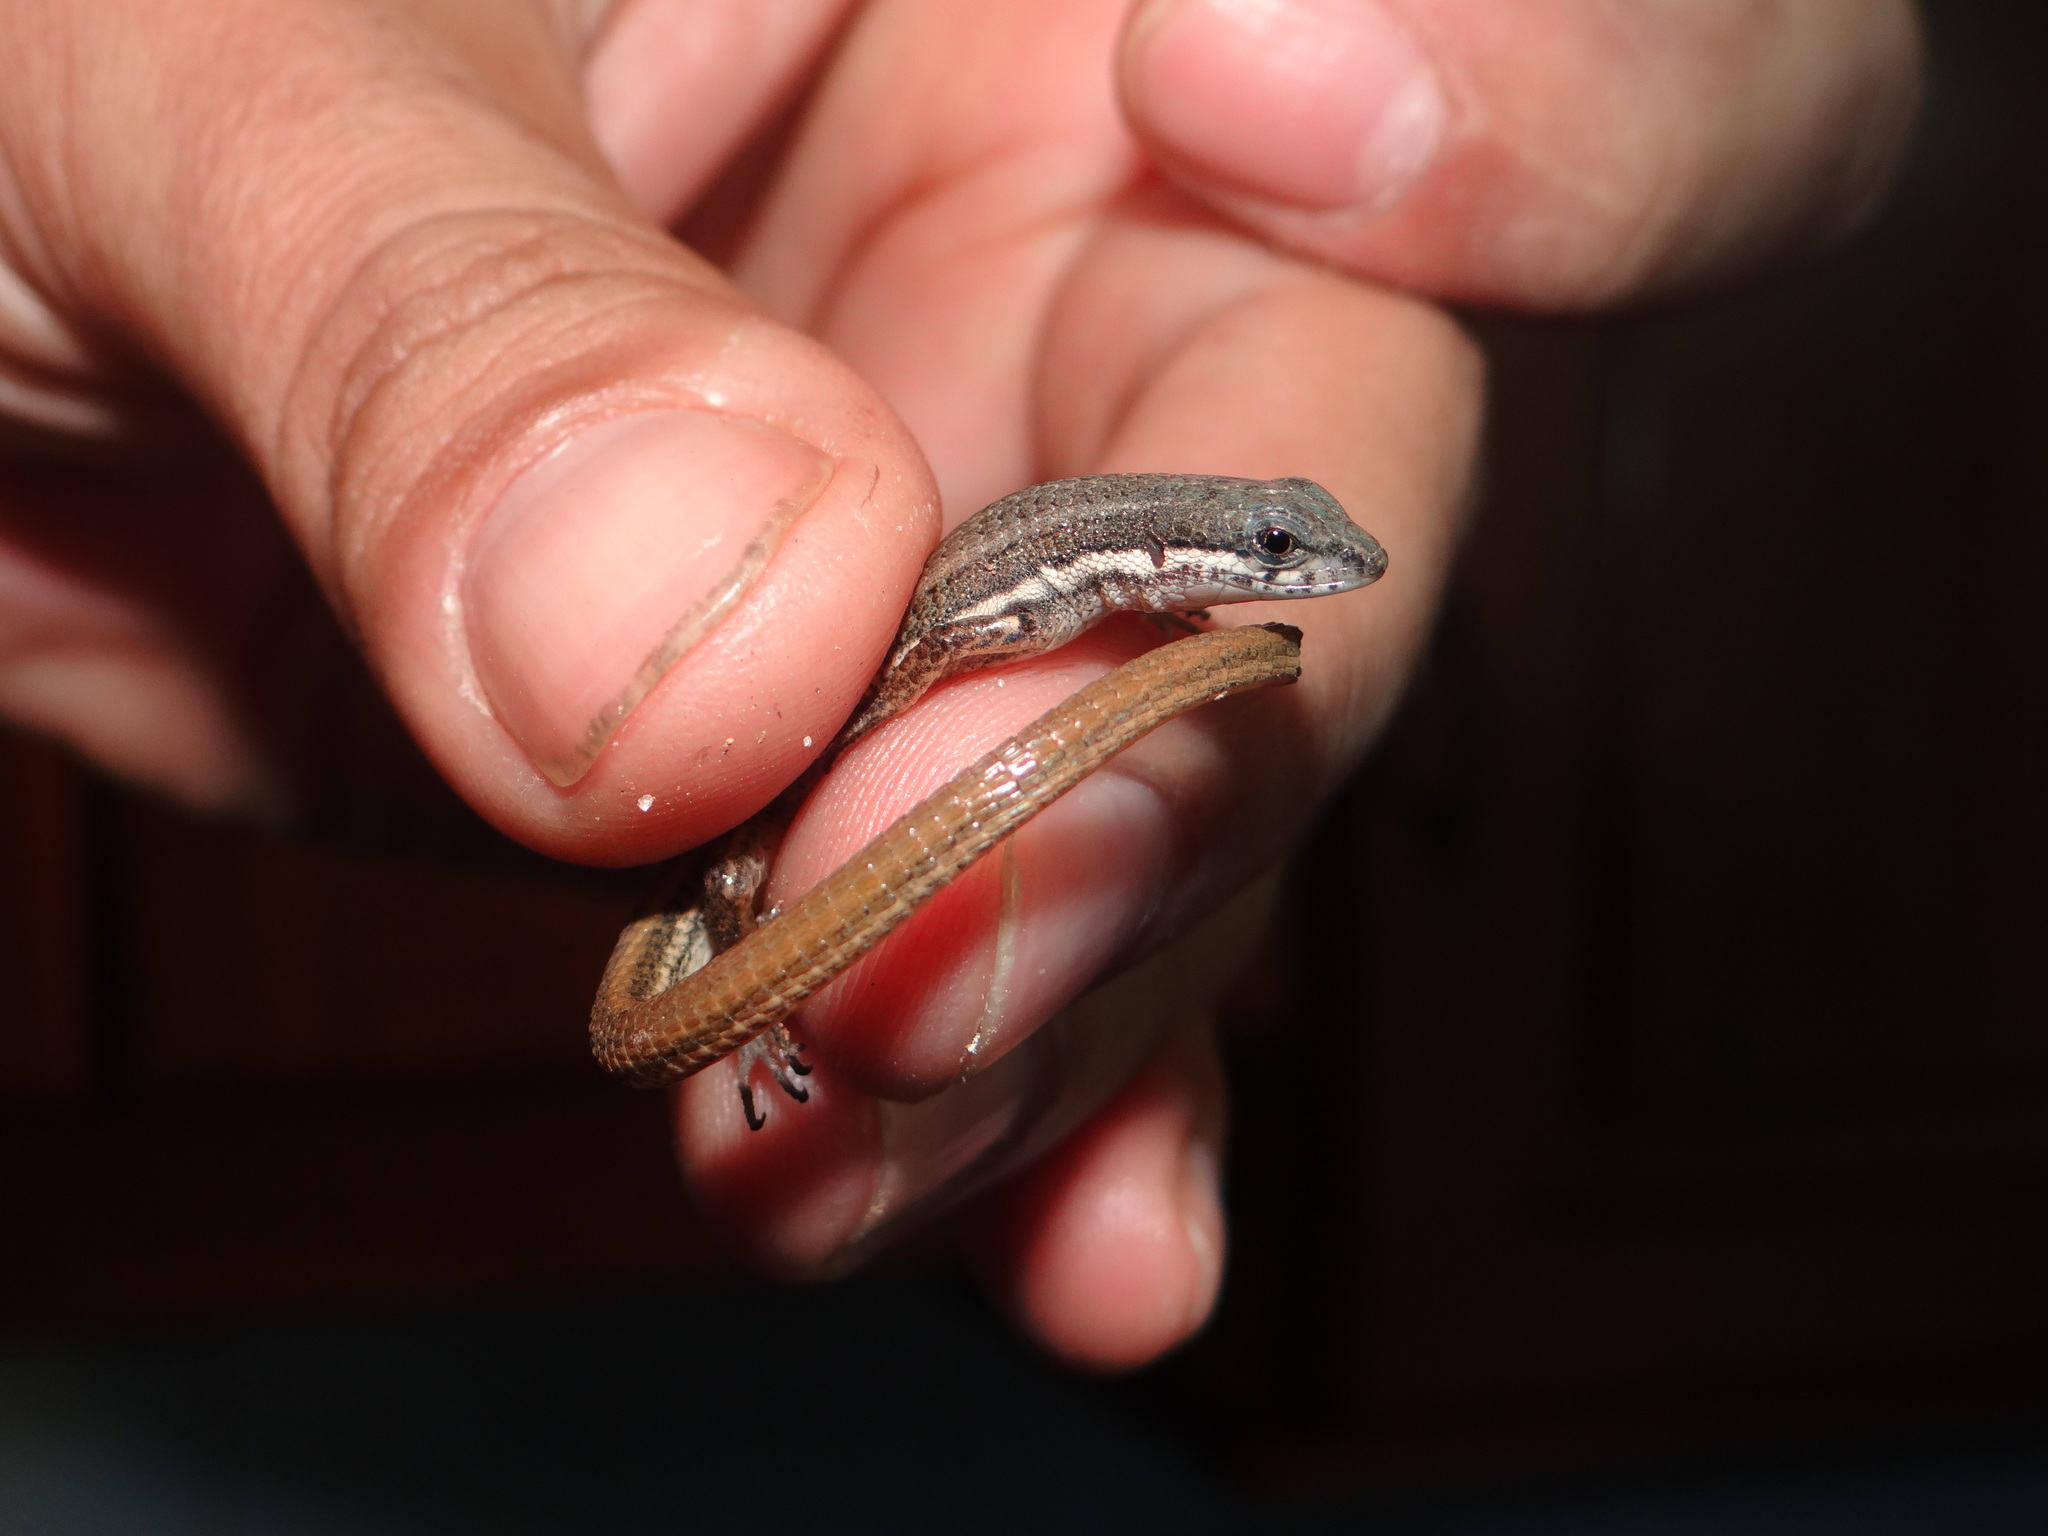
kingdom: Animalia
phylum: Chordata
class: Squamata
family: Gymnophthalmidae
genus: Cercosaura
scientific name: Cercosaura eigenmanni
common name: Eigenmann's cercosaura
